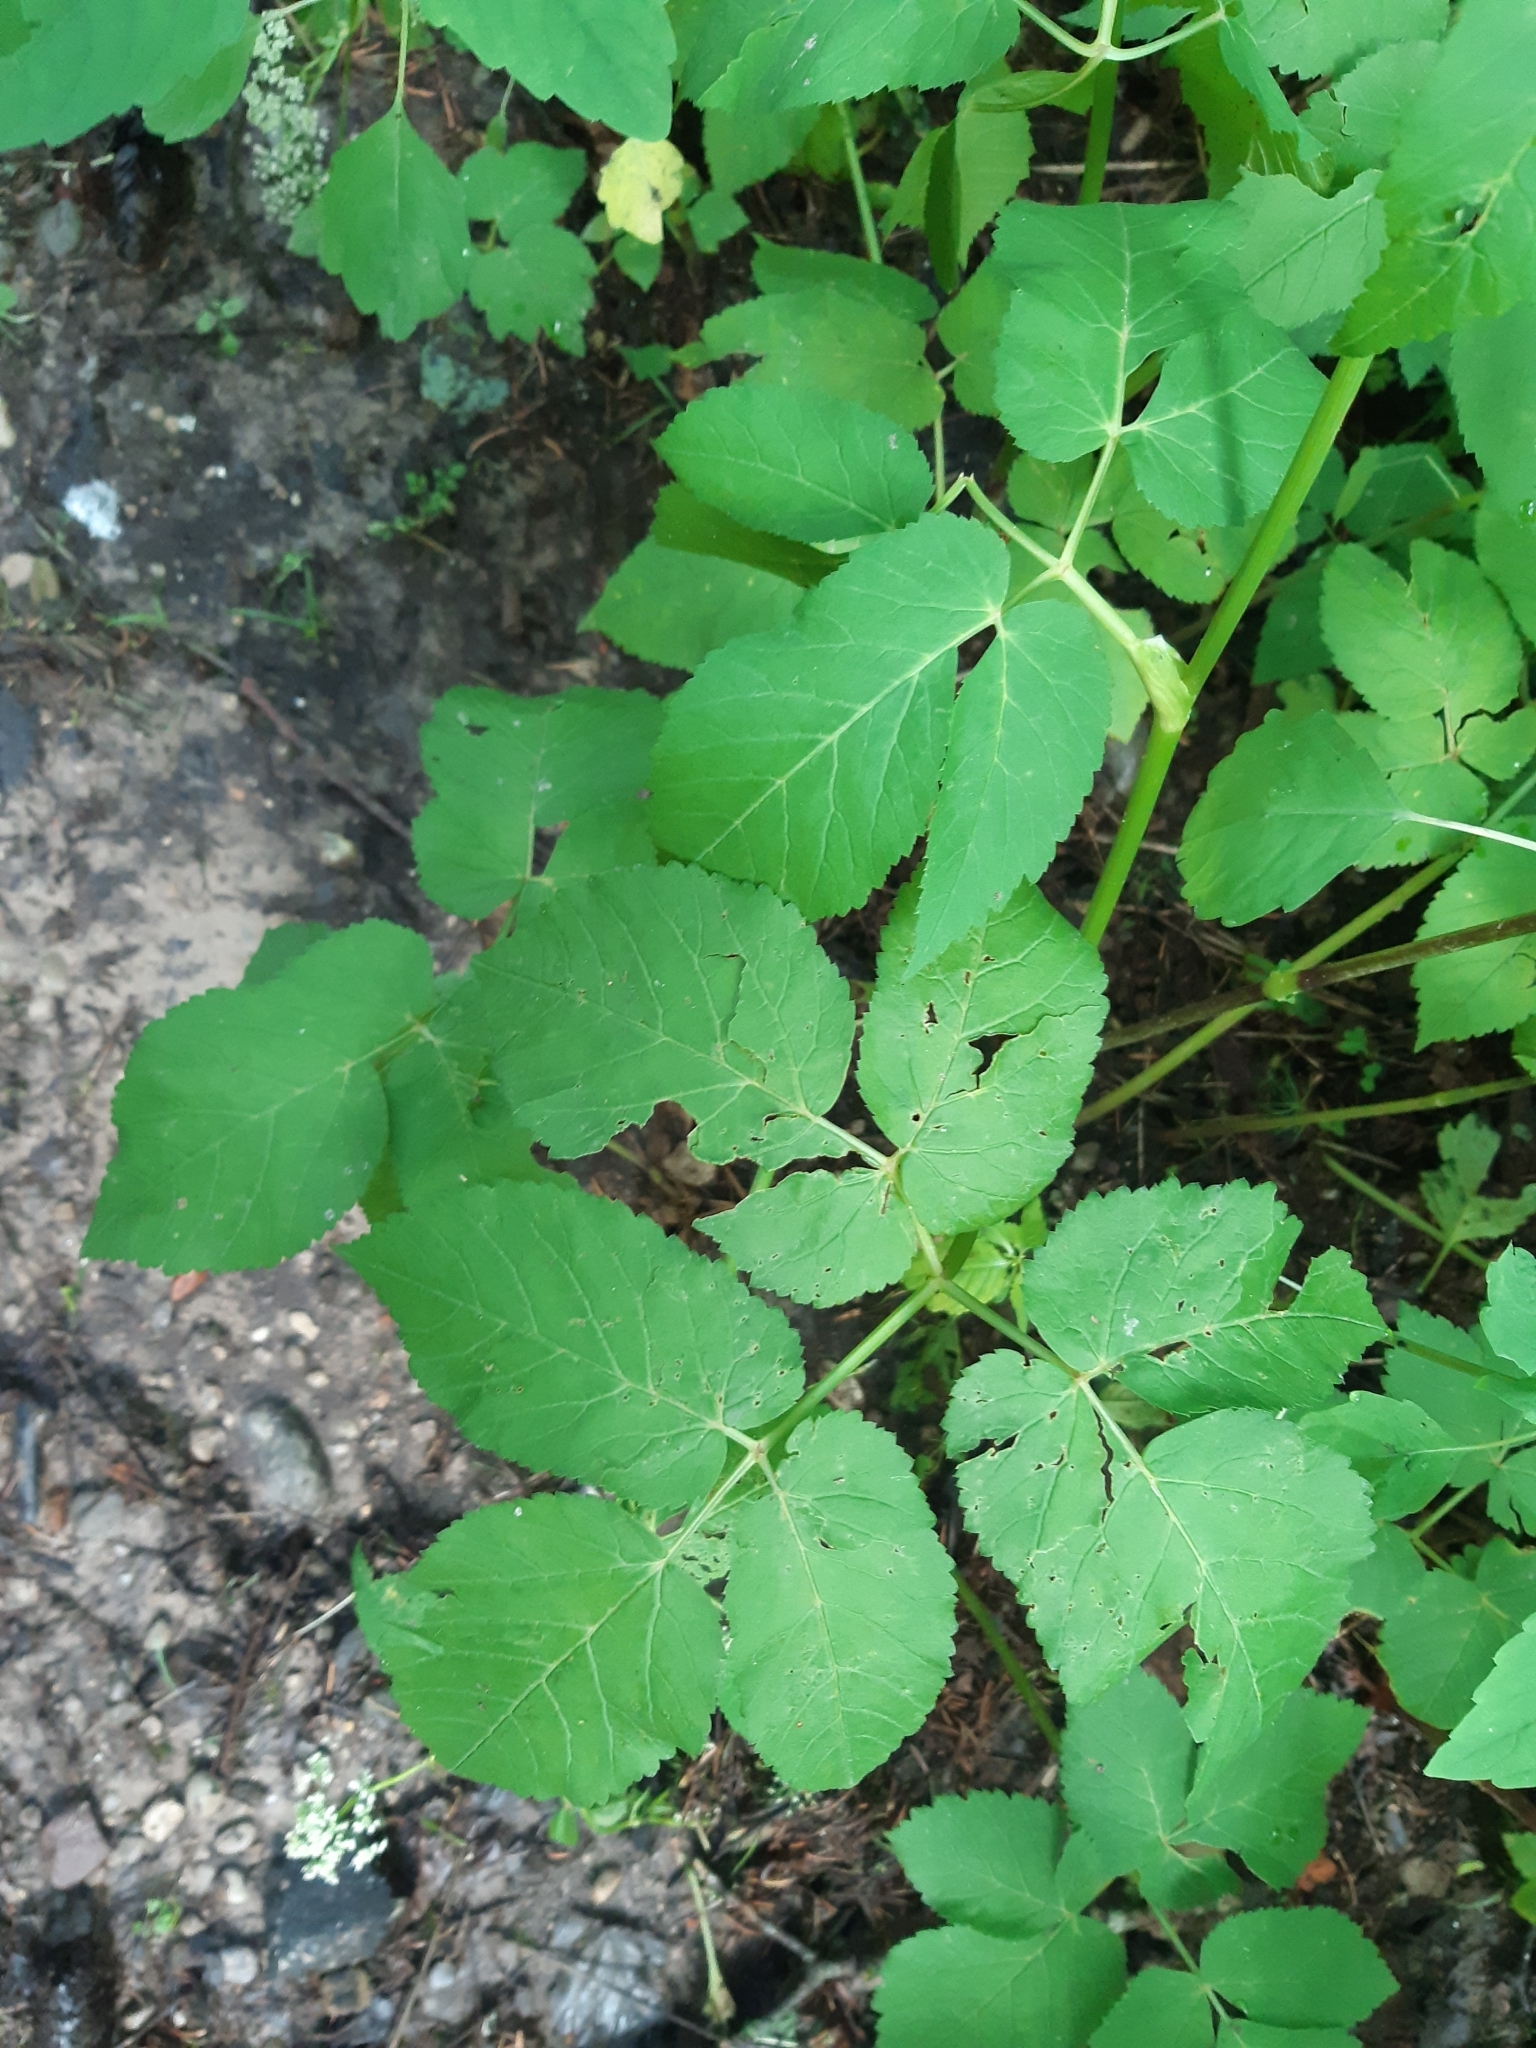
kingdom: Plantae
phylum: Tracheophyta
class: Magnoliopsida
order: Apiales
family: Apiaceae
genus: Aegopodium
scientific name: Aegopodium podagraria
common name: Ground-elder
